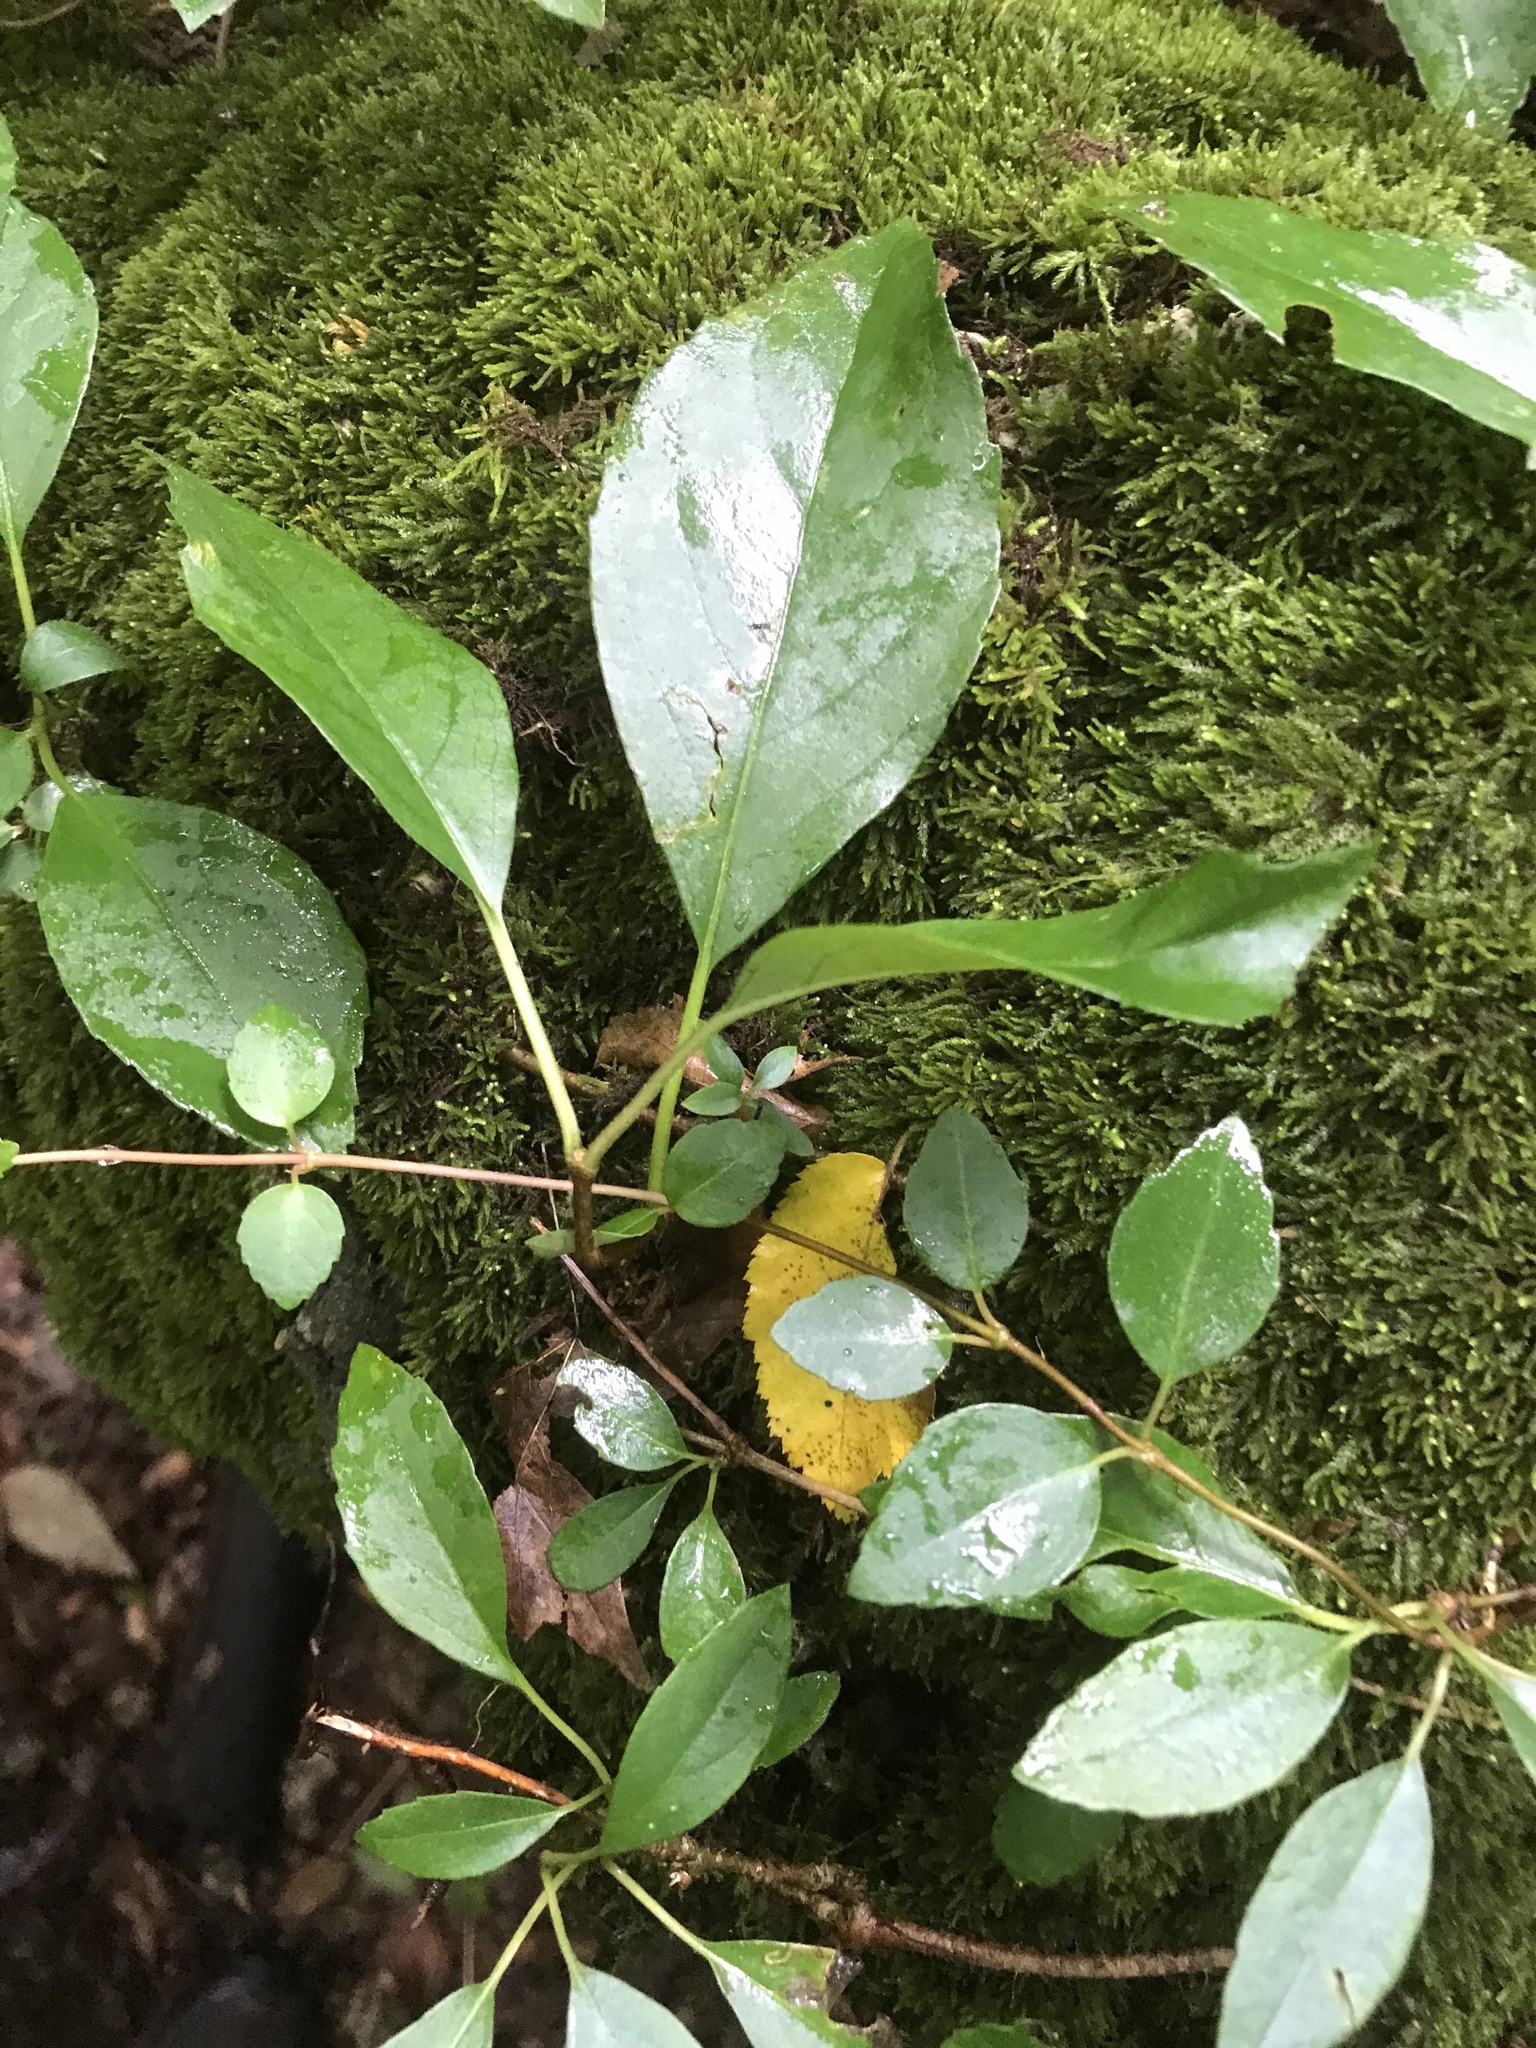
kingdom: Plantae
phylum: Tracheophyta
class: Magnoliopsida
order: Cornales
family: Hydrangeaceae
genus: Hydrangea
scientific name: Hydrangea barbara
